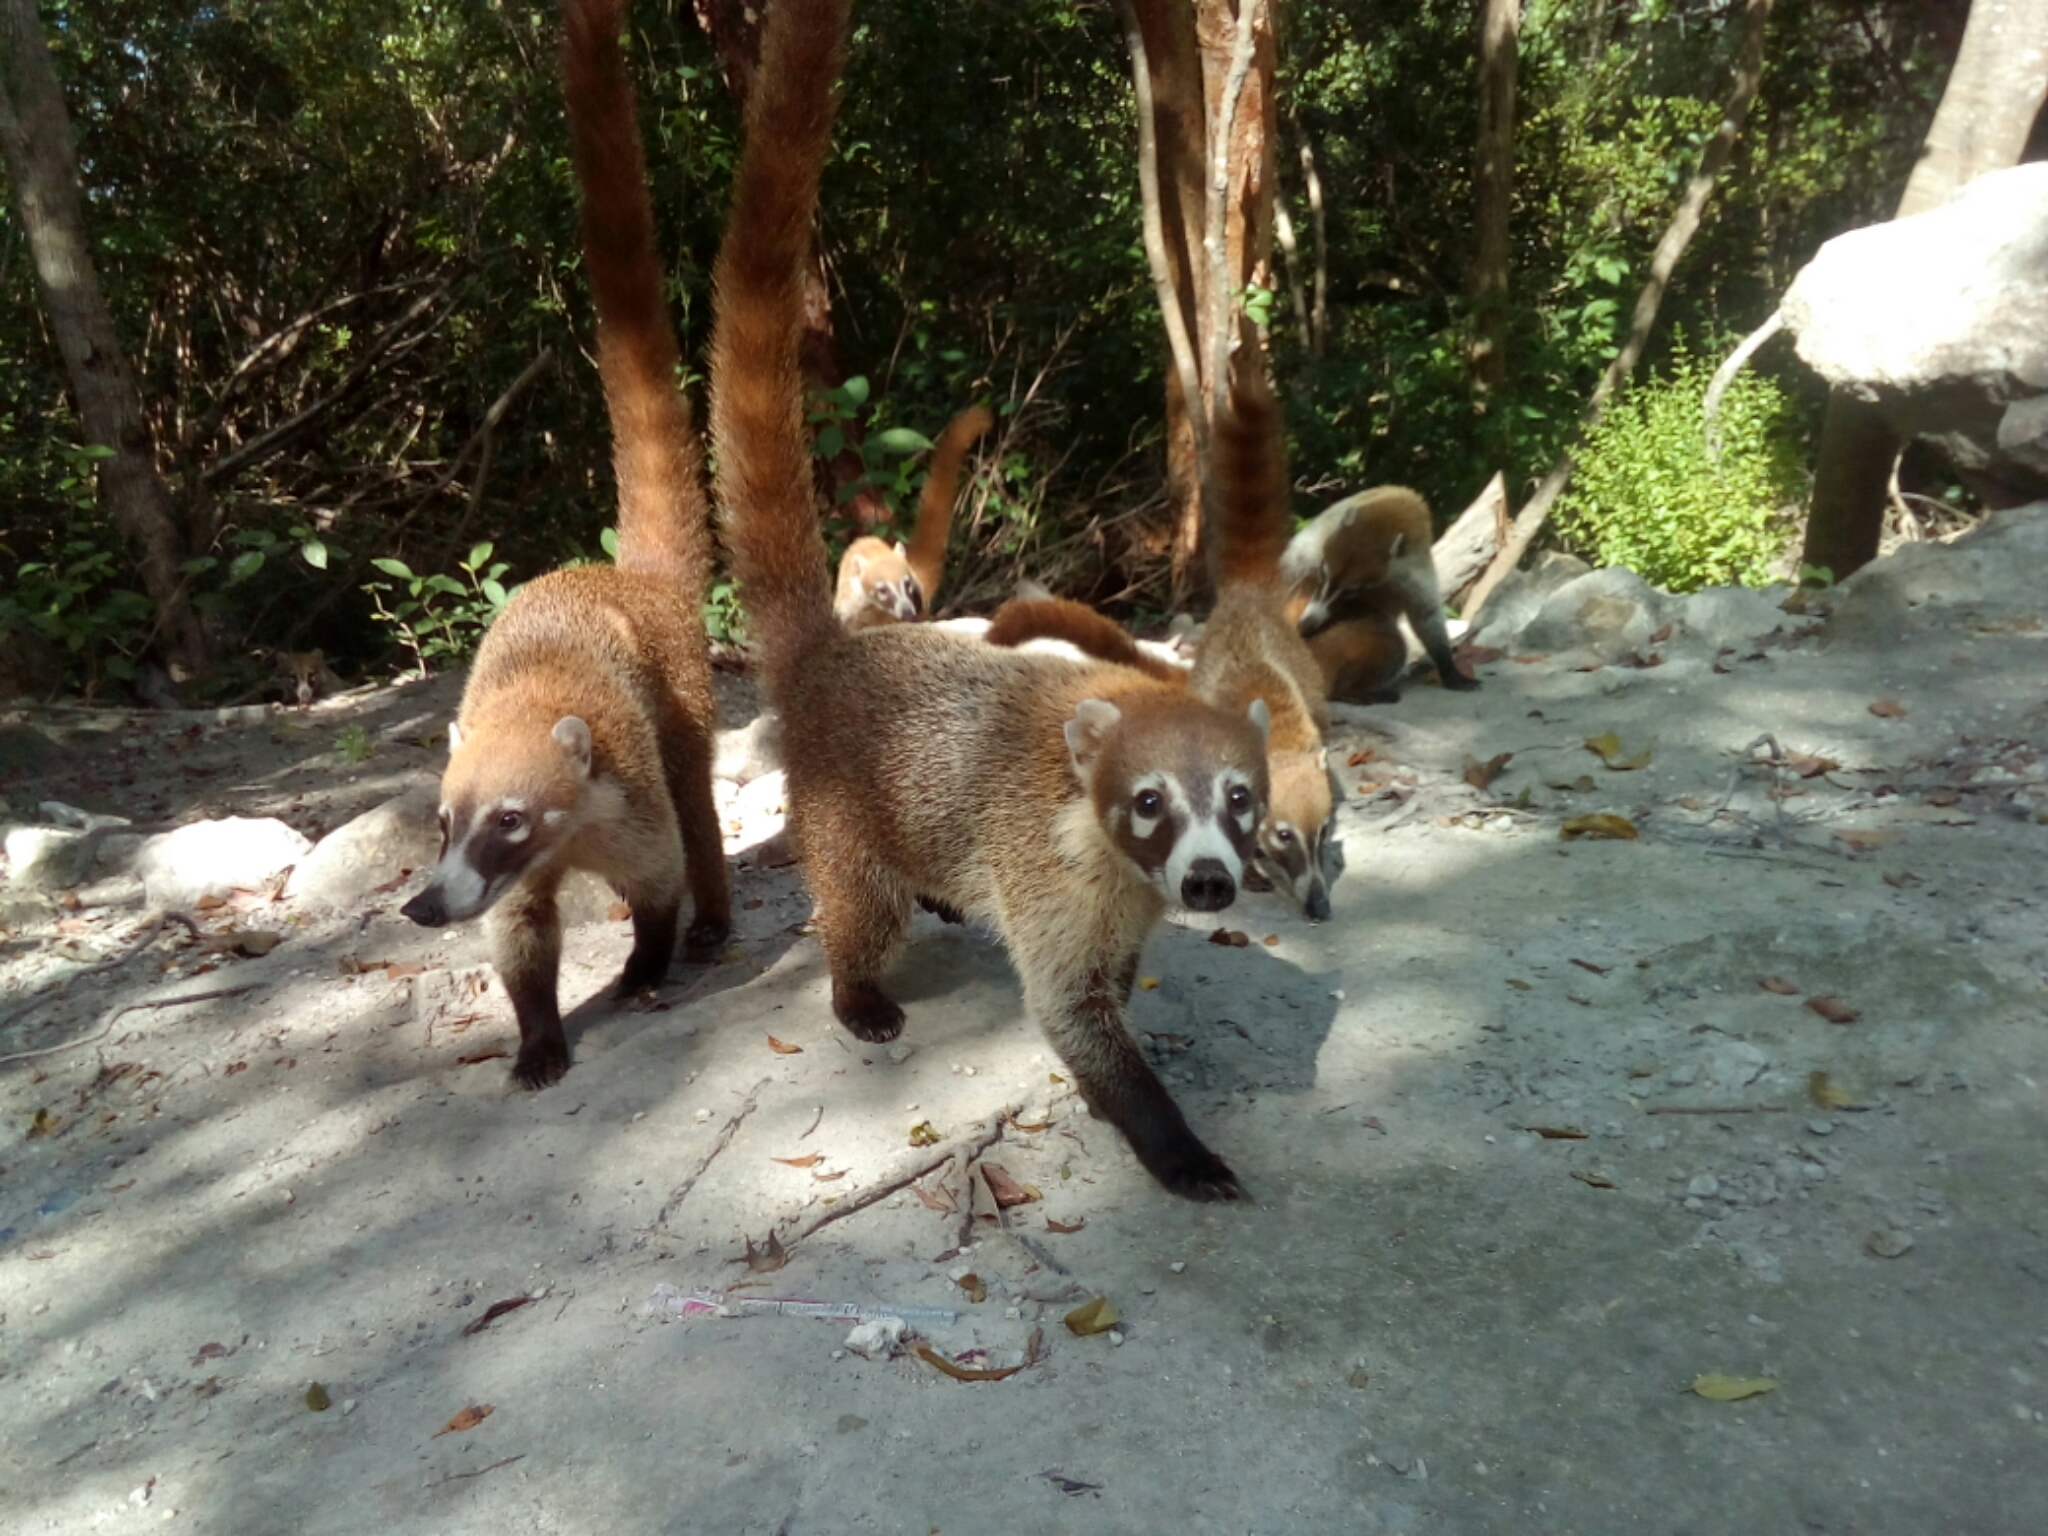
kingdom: Animalia
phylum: Chordata
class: Mammalia
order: Carnivora
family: Procyonidae
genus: Nasua
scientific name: Nasua narica
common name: White-nosed coati
